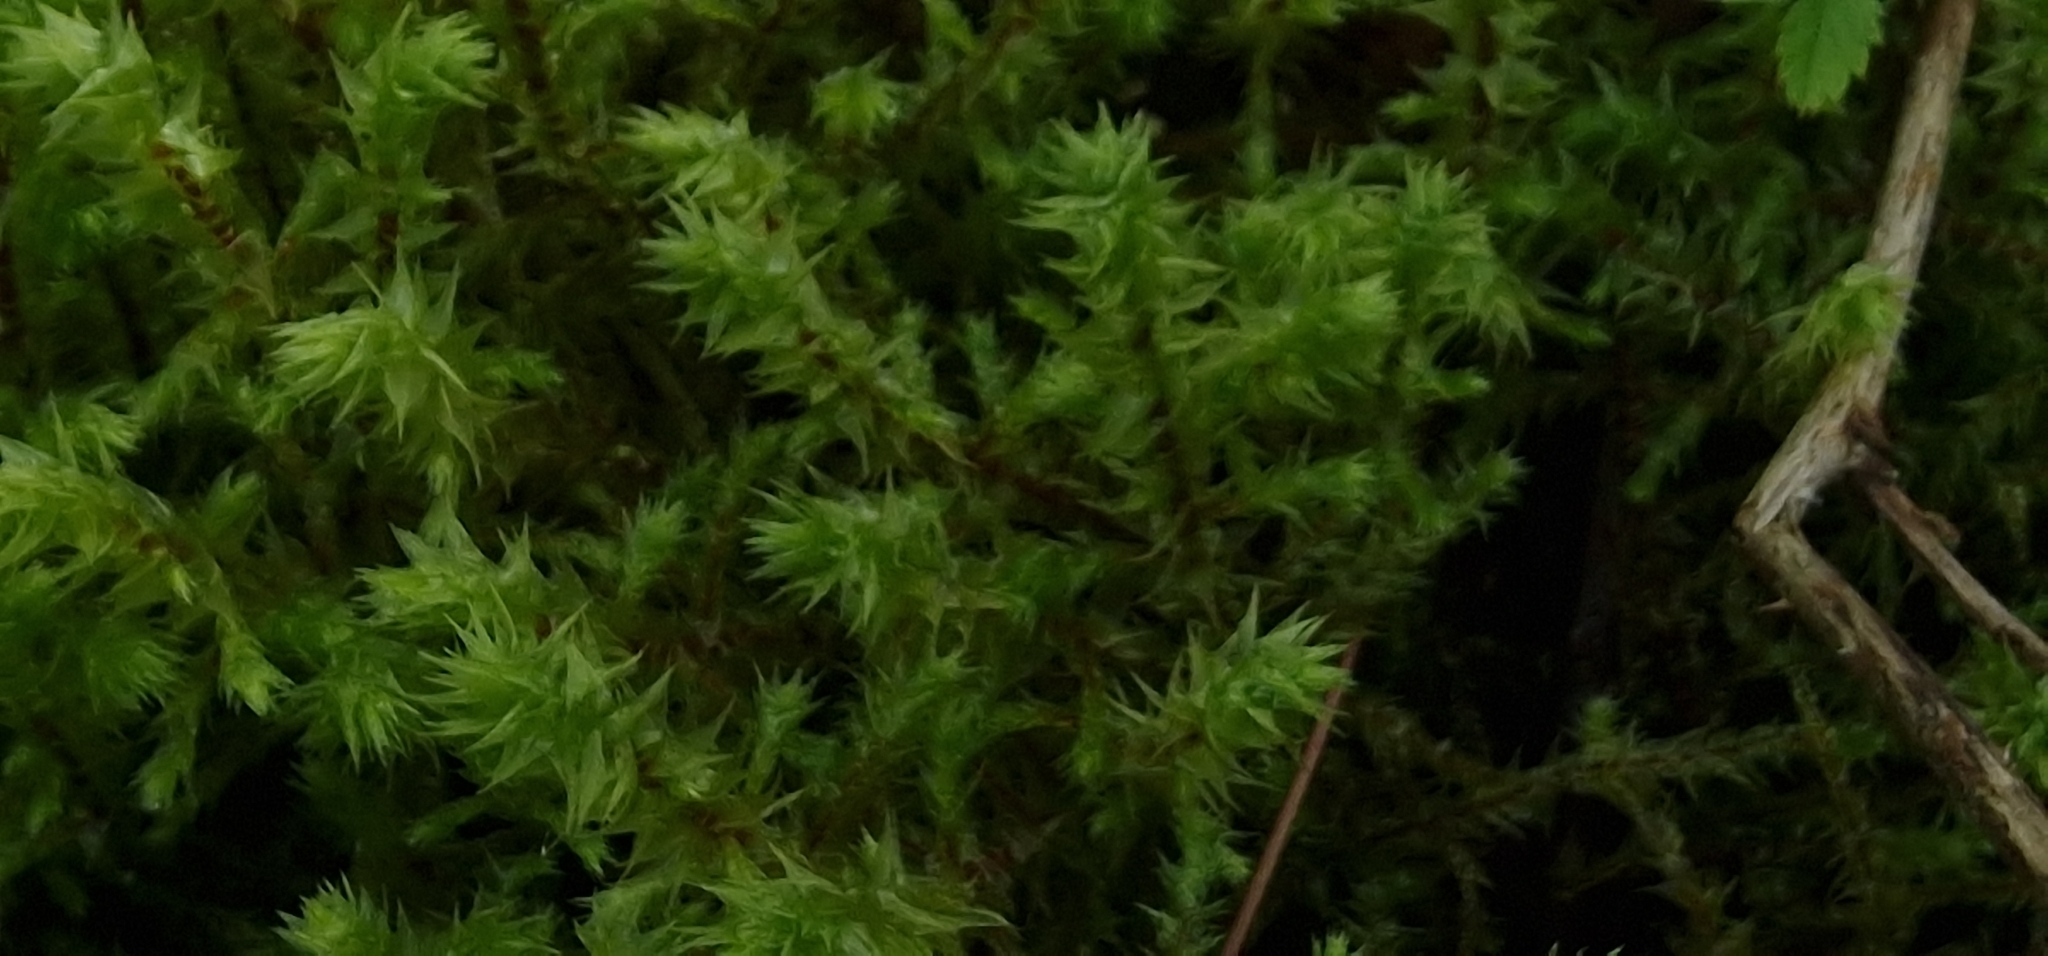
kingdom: Plantae
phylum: Bryophyta
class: Bryopsida
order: Hypnales
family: Hylocomiaceae
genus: Hylocomiadelphus
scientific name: Hylocomiadelphus triquetrus
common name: Rough goose neck moss
